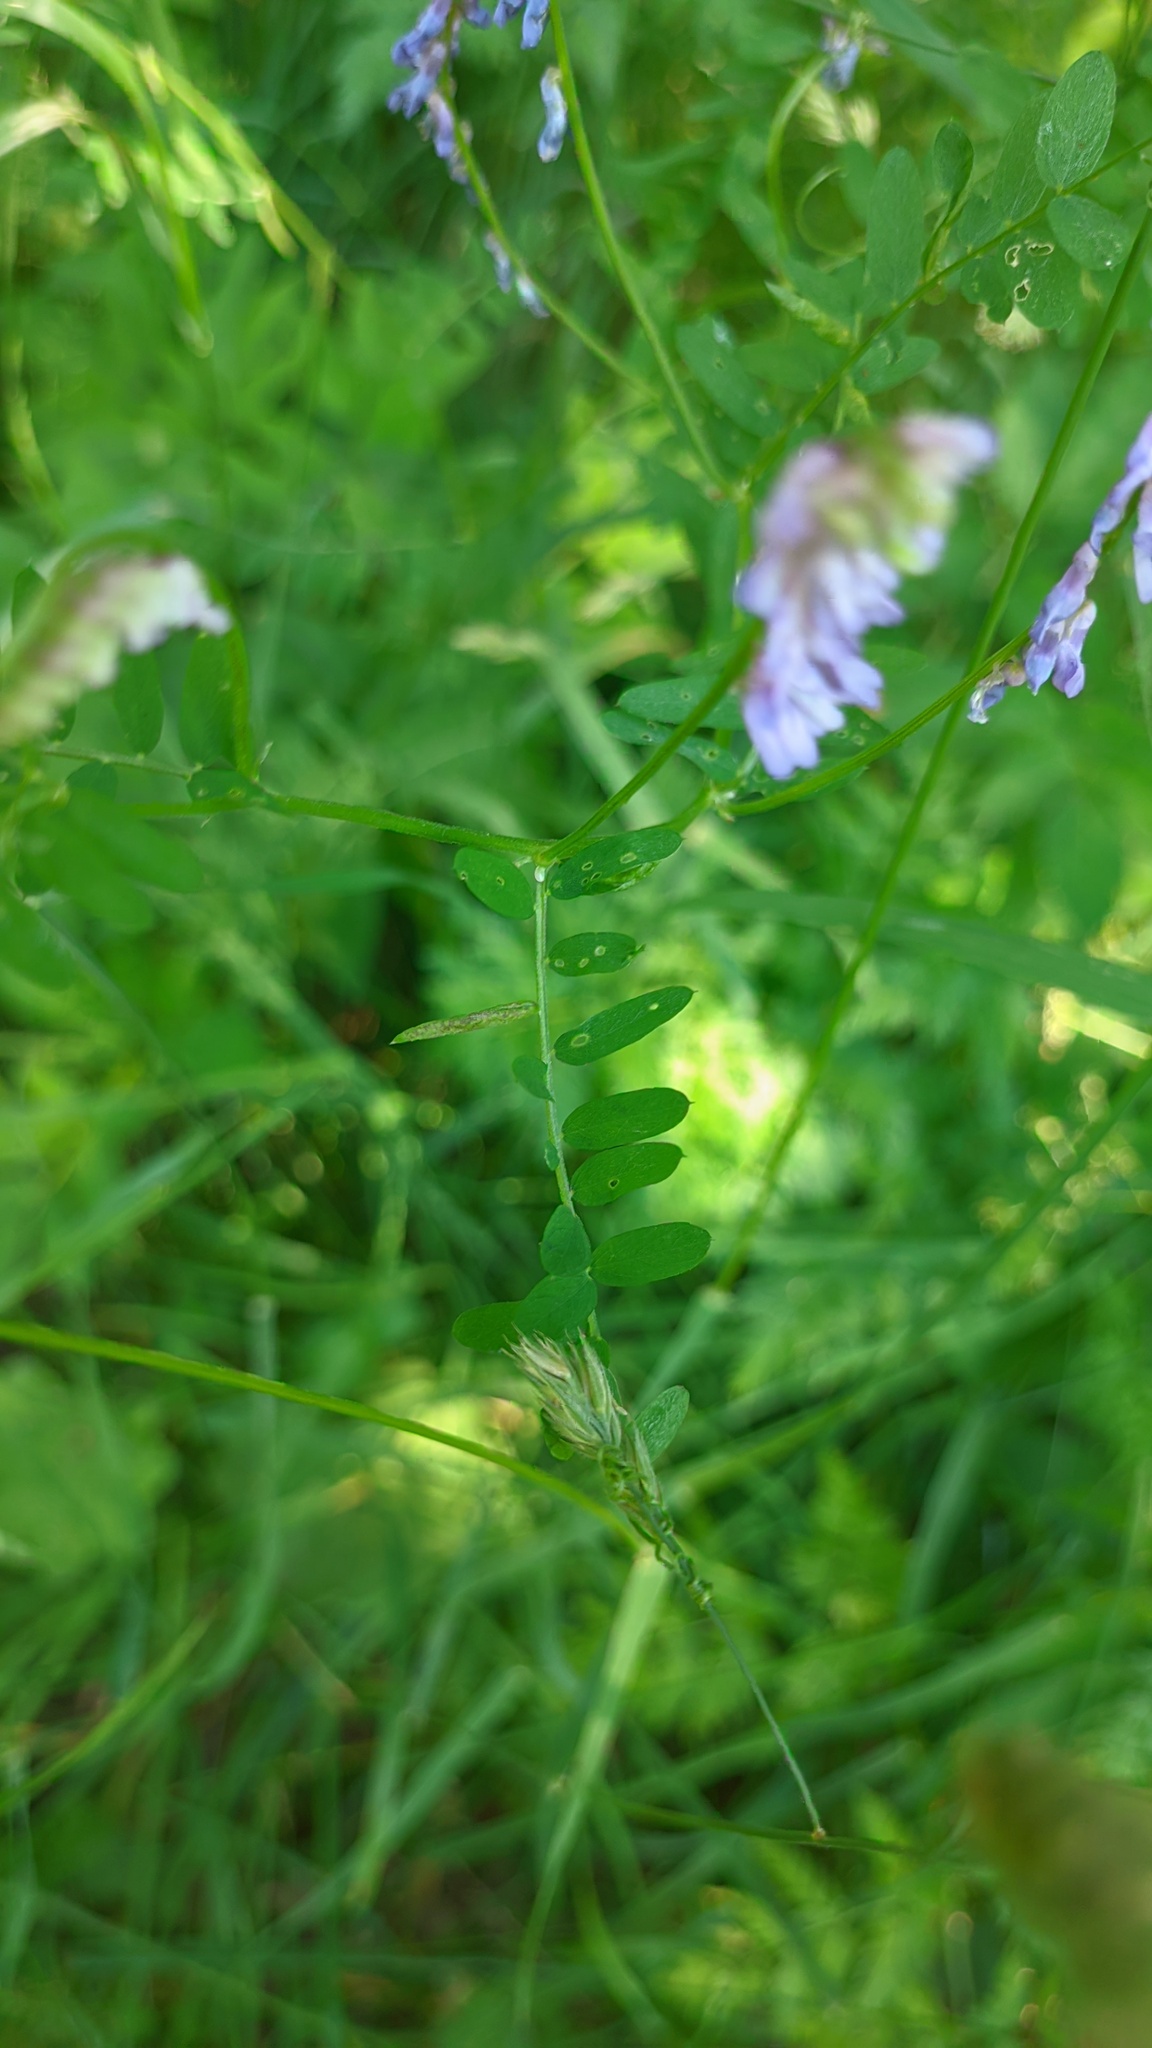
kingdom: Plantae
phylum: Tracheophyta
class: Magnoliopsida
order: Fabales
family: Fabaceae
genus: Vicia
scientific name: Vicia cracca
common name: Bird vetch
